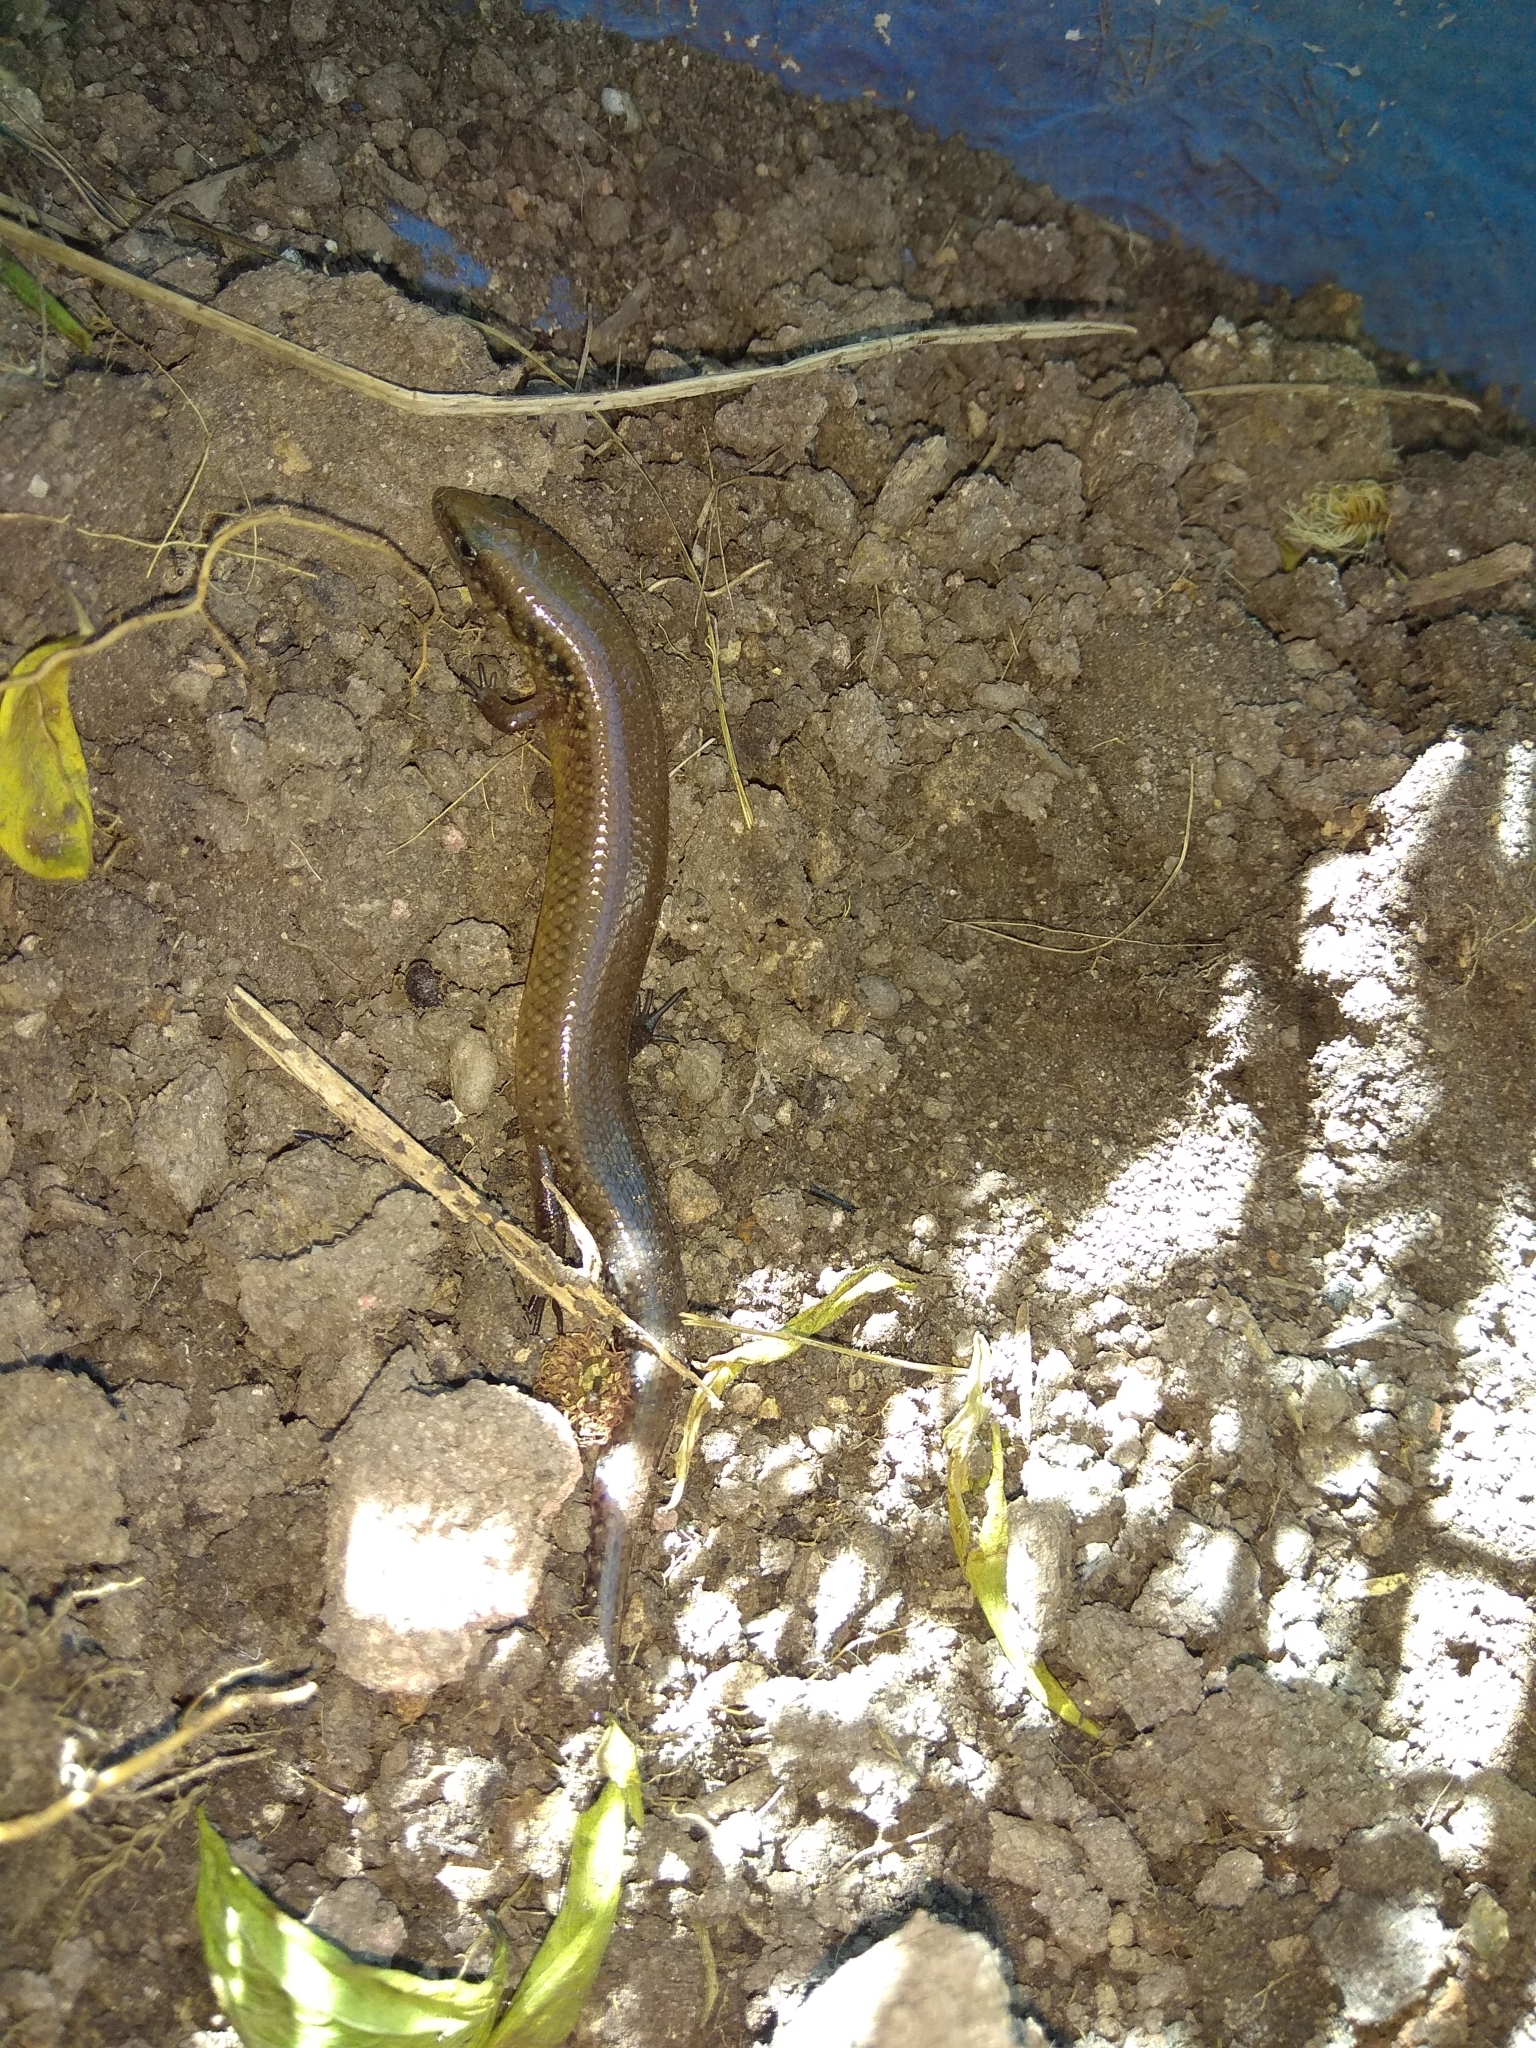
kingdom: Animalia
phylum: Chordata
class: Squamata
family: Scincidae
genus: Ateuchosaurus
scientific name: Ateuchosaurus chinensis
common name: Chinese ateuchosaurus
